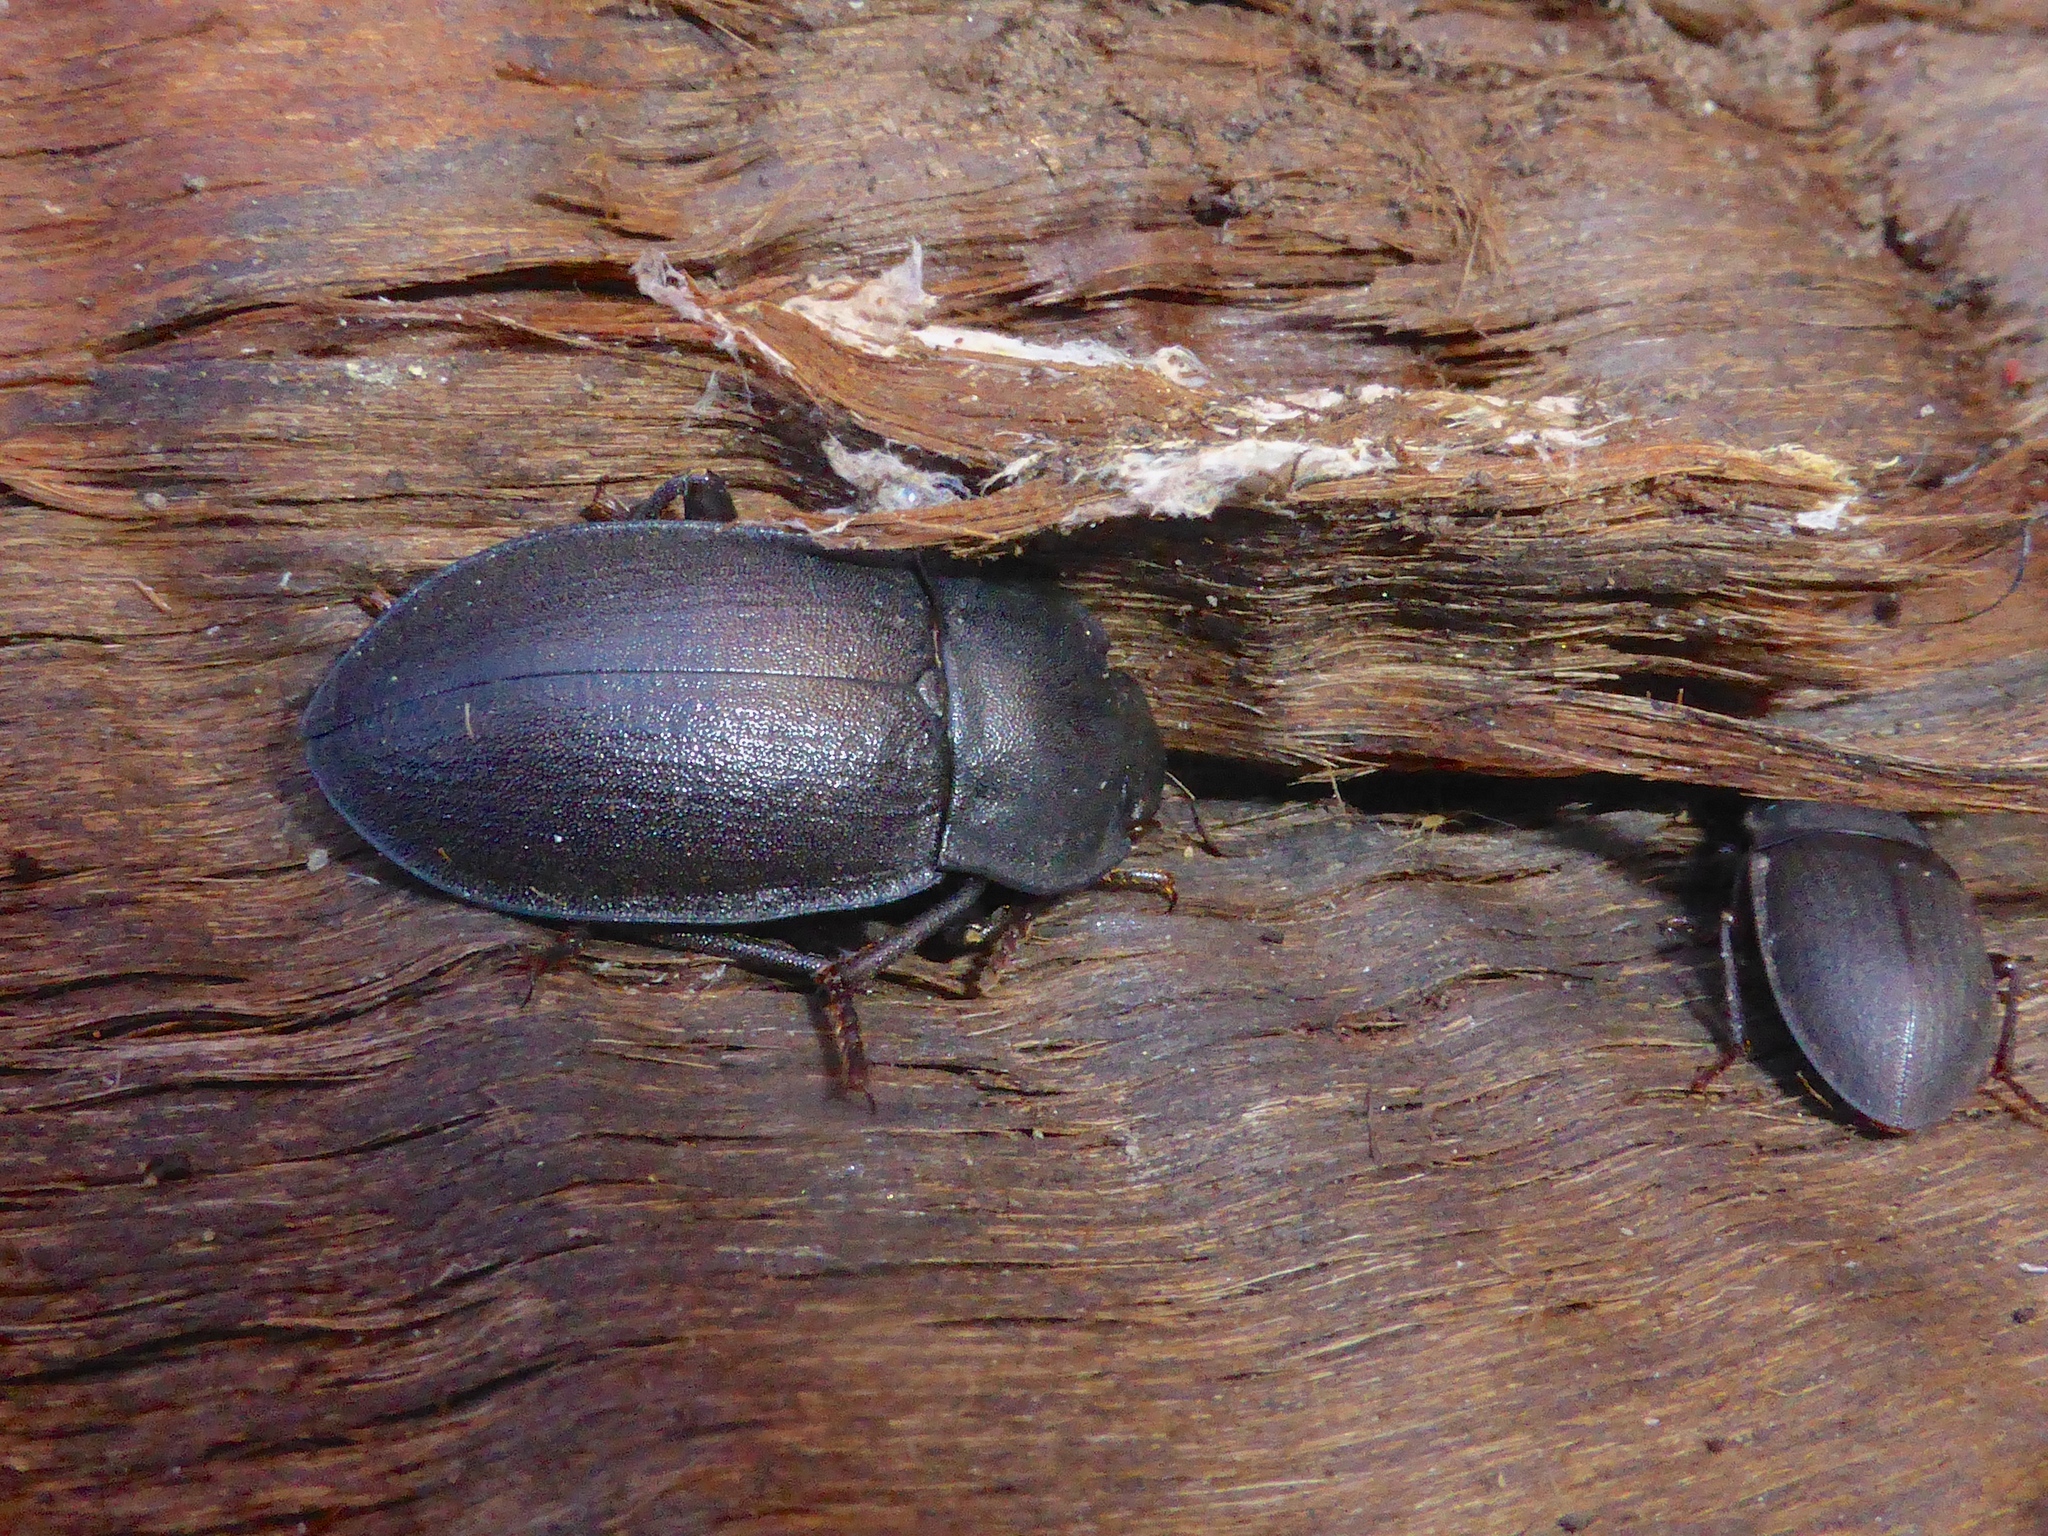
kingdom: Animalia
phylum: Arthropoda
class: Insecta
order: Coleoptera
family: Tenebrionidae
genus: Mimopeus
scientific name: Mimopeus
